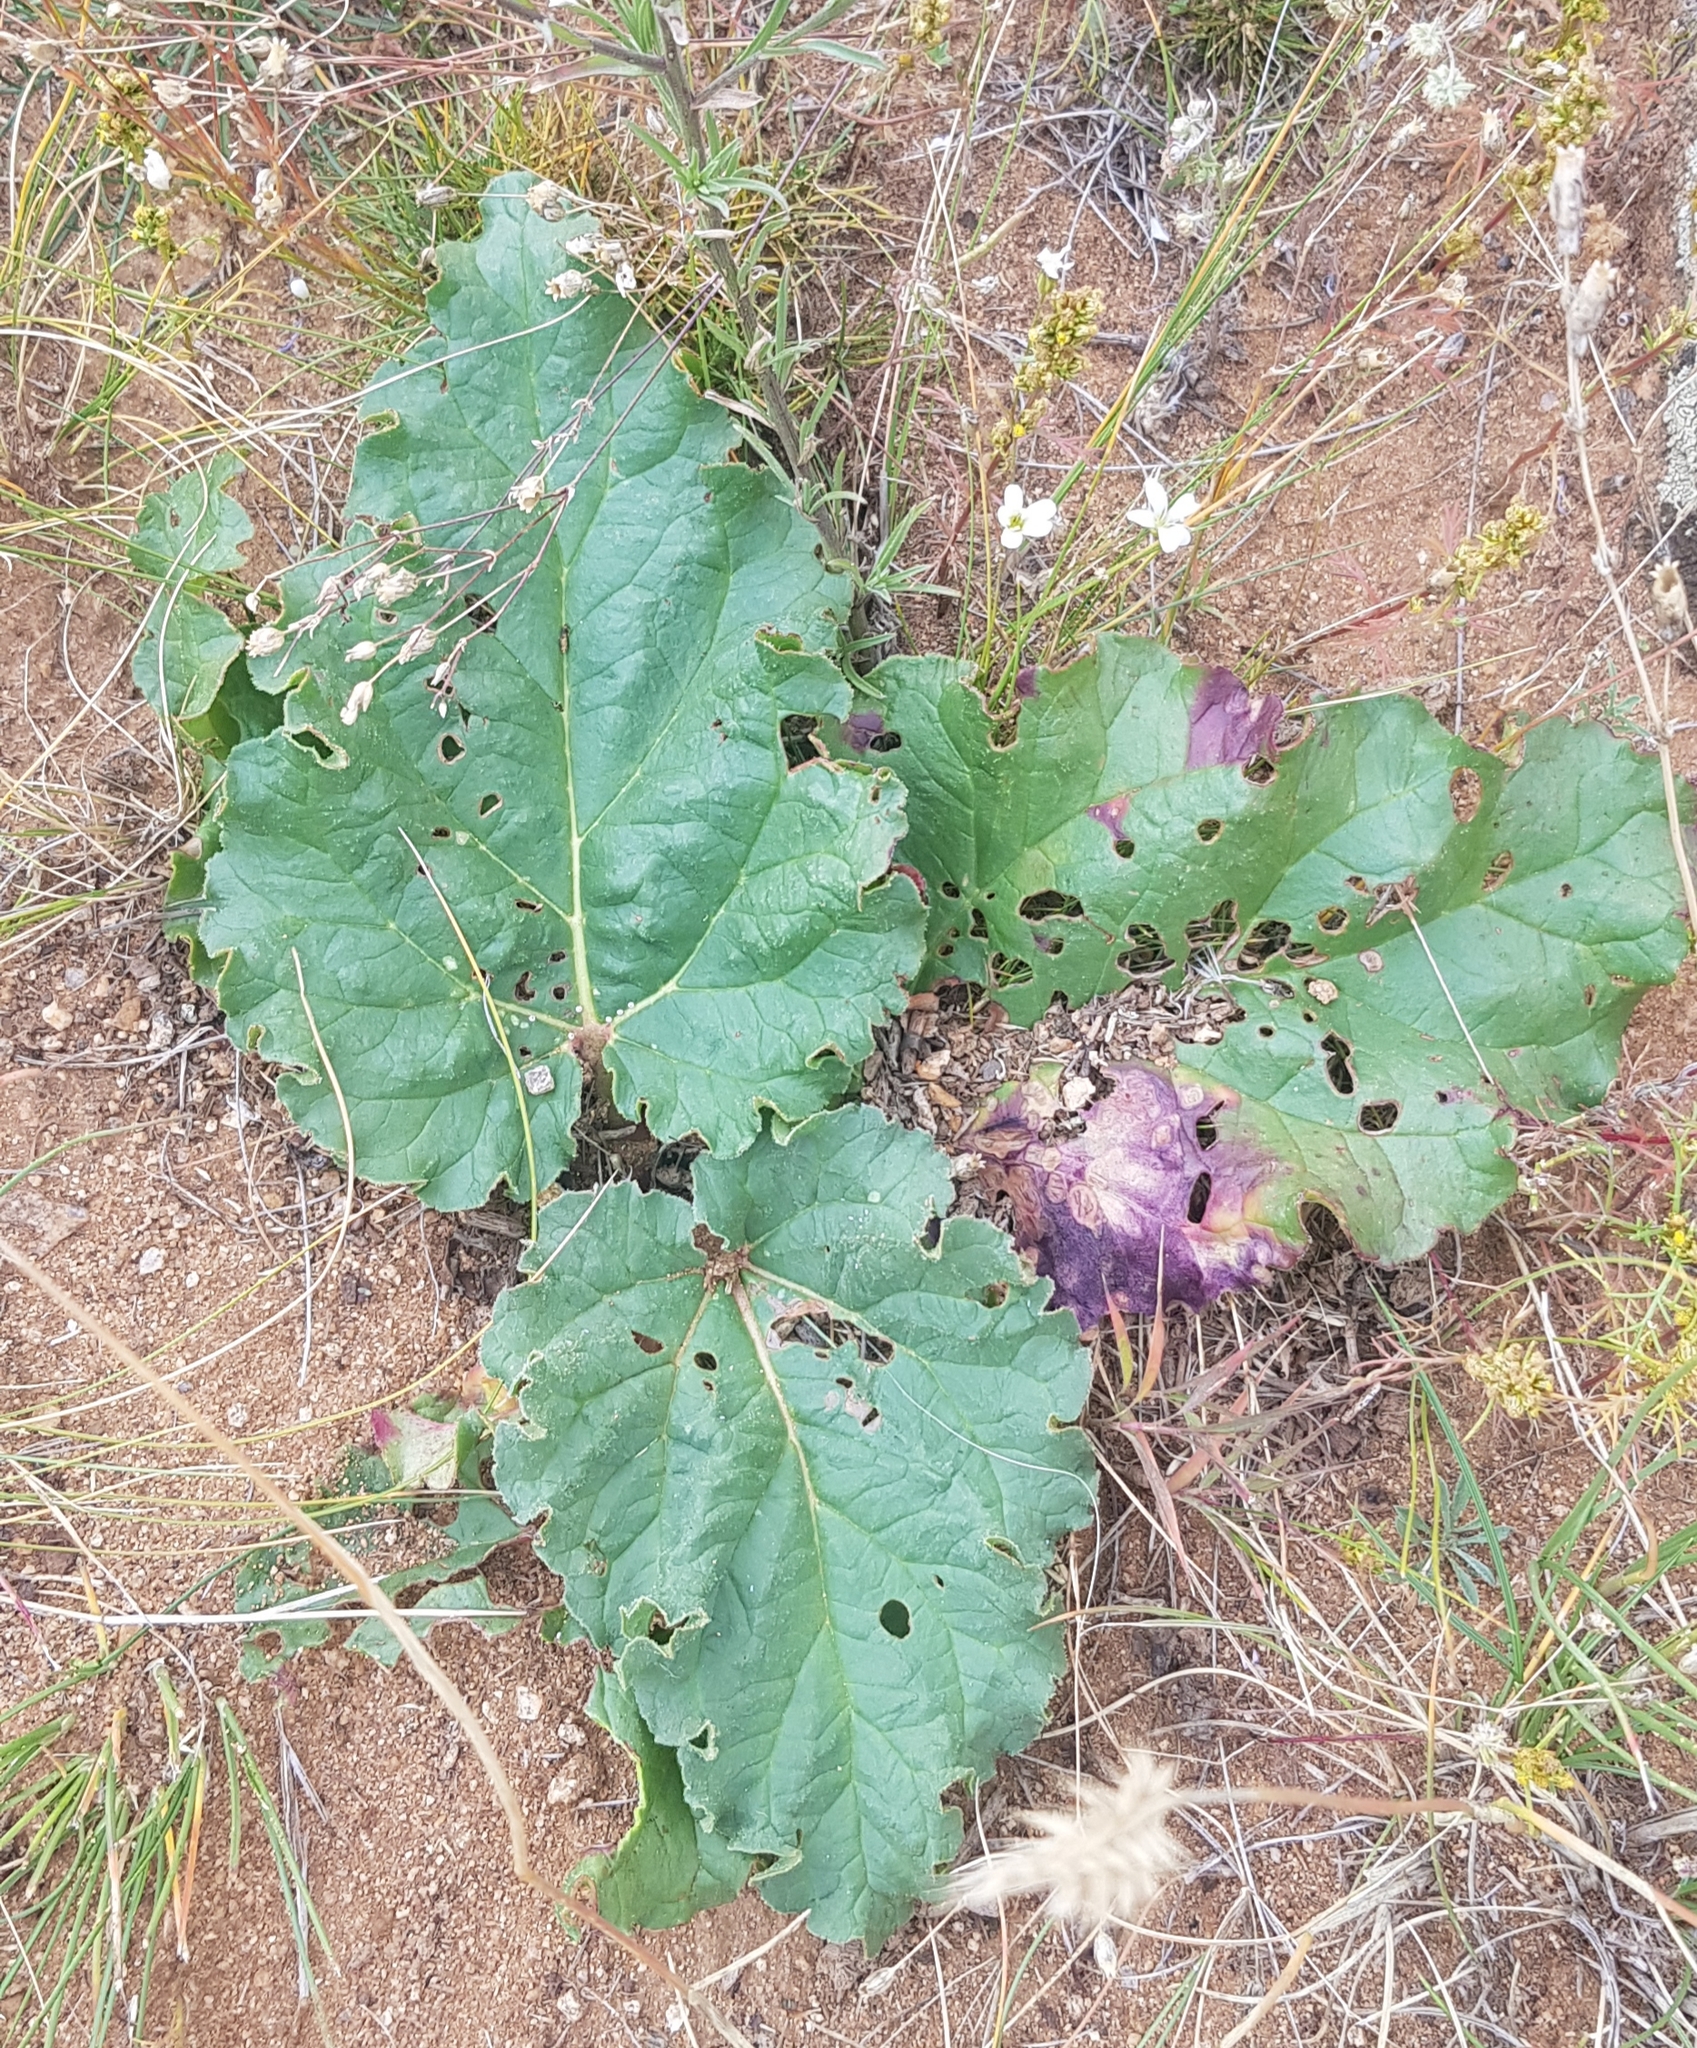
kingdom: Plantae
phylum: Tracheophyta
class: Magnoliopsida
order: Caryophyllales
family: Polygonaceae
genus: Rheum
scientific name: Rheum rhabarbarum
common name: Garden rhubarb
